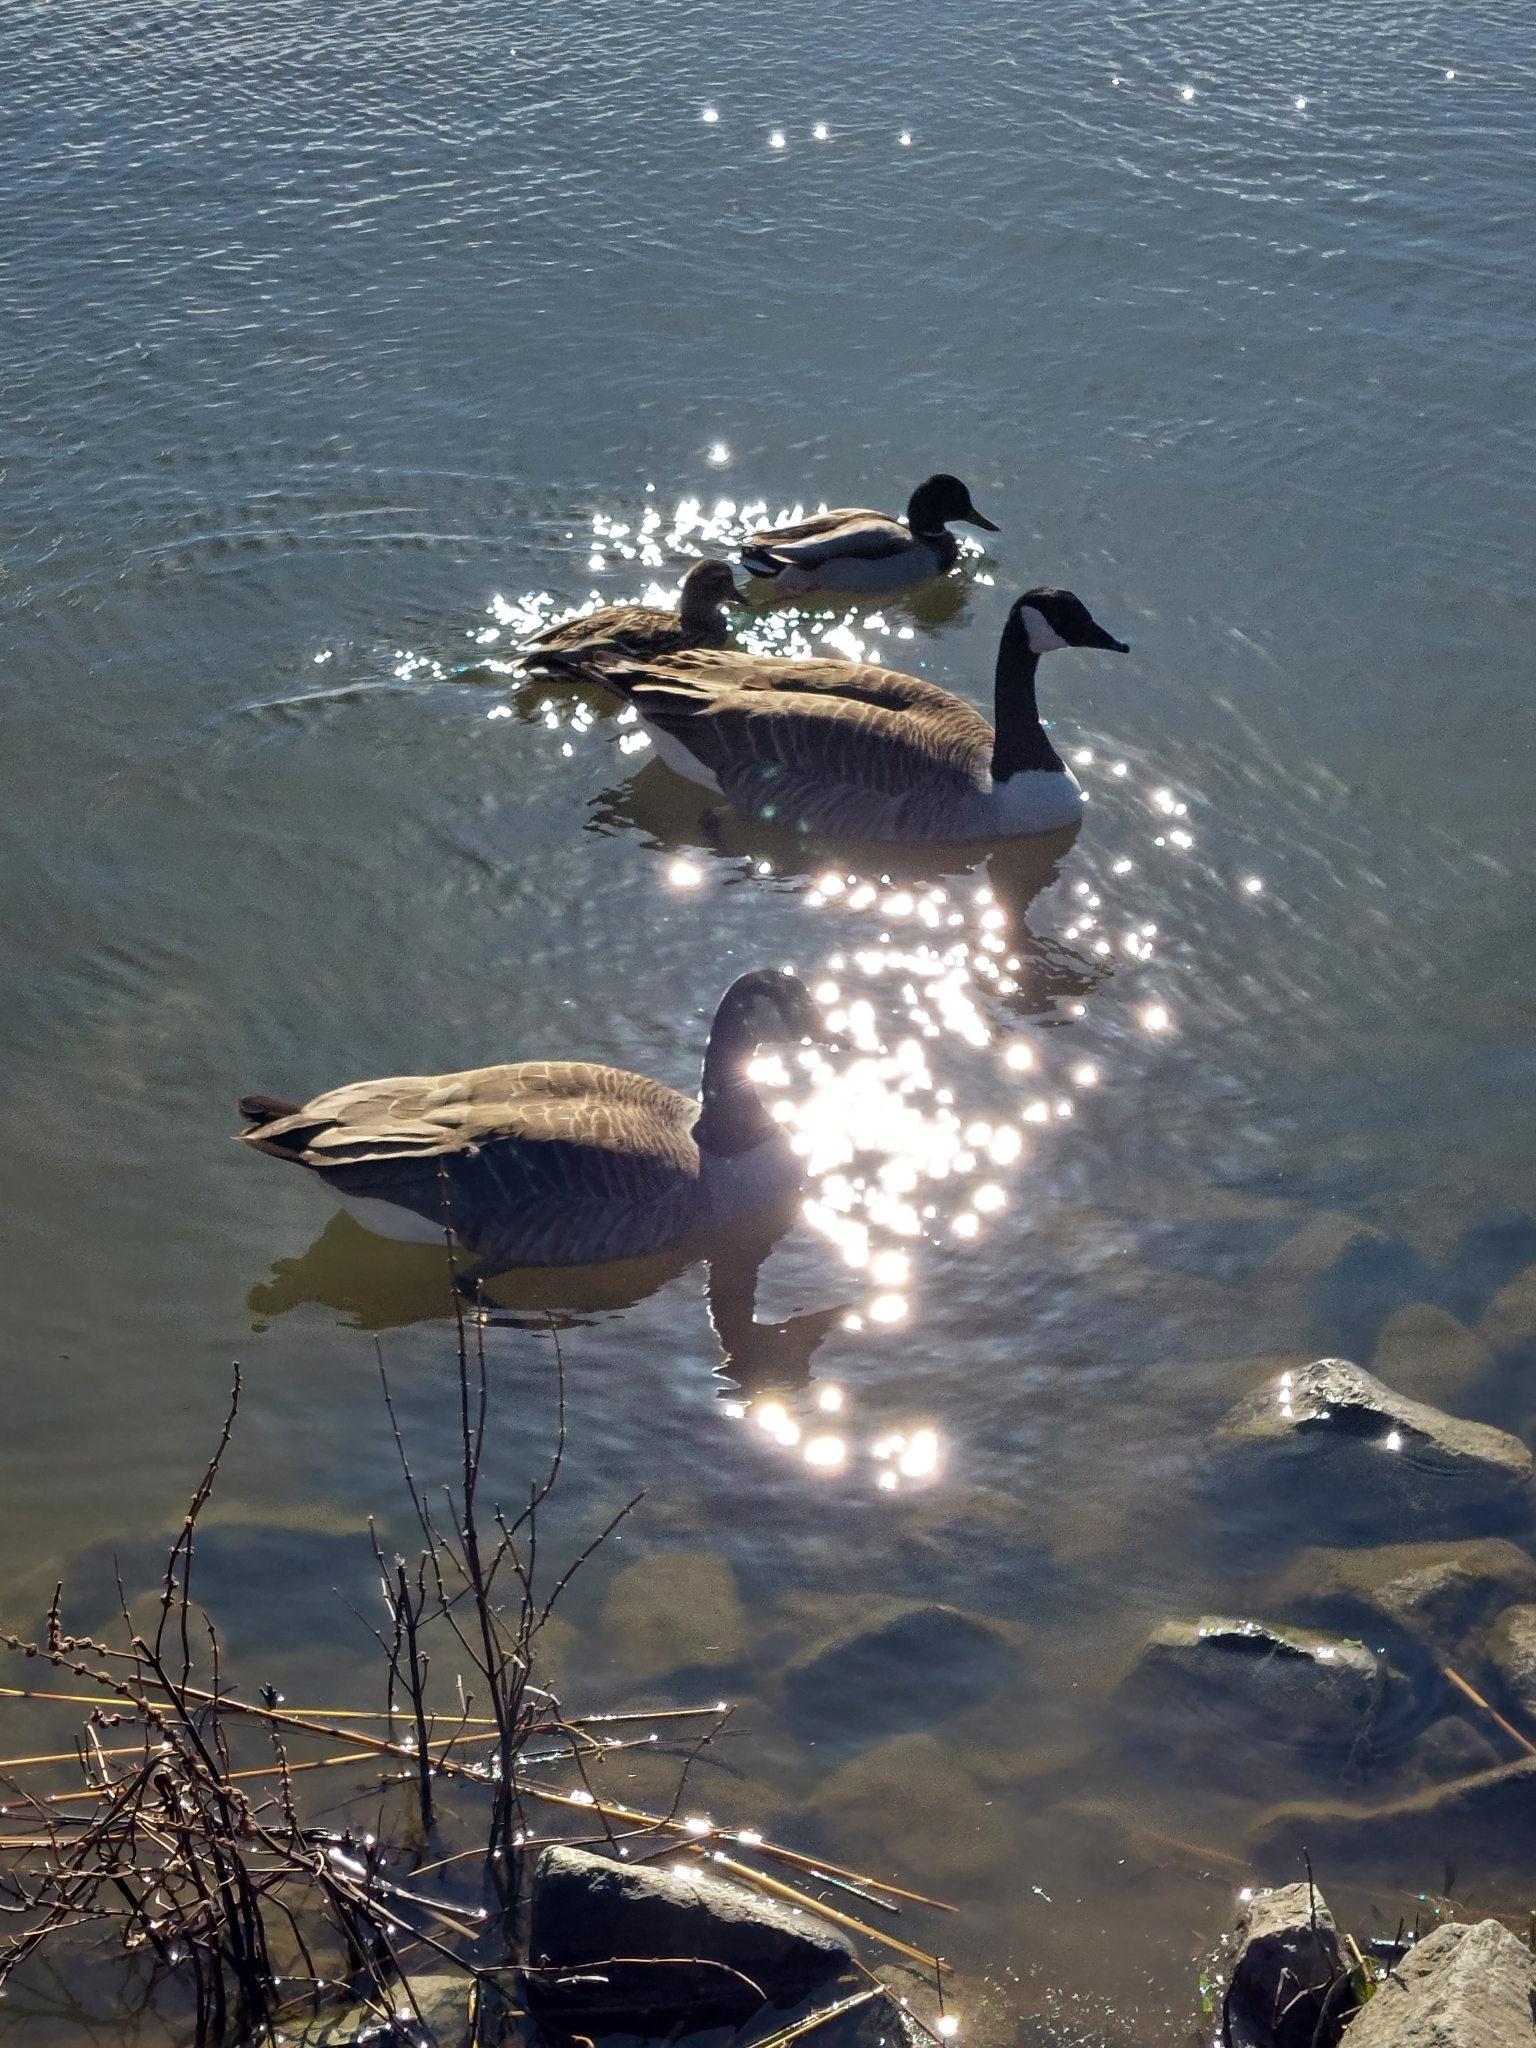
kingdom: Animalia
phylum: Chordata
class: Aves
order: Anseriformes
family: Anatidae
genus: Branta
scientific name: Branta canadensis
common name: Canada goose
